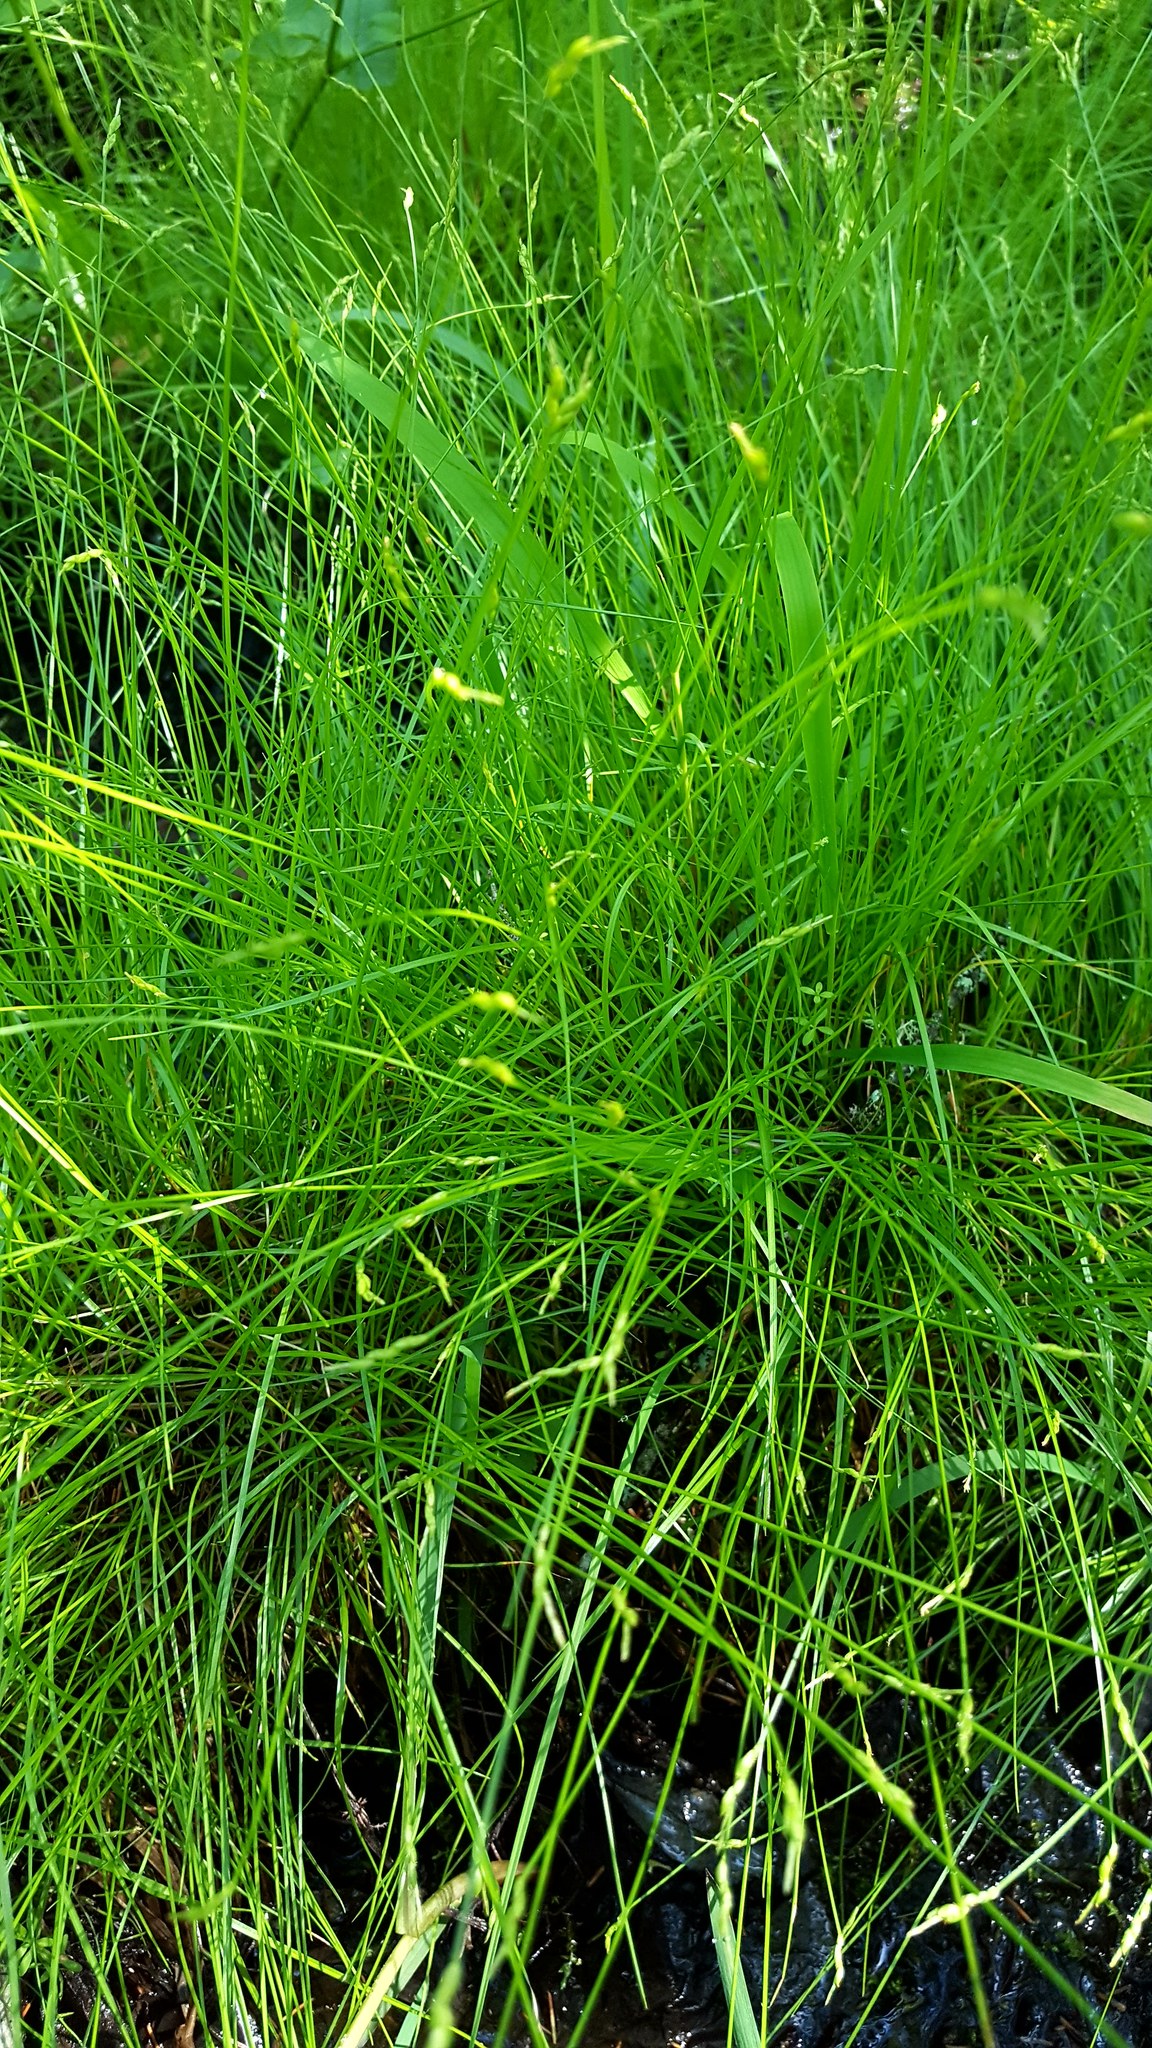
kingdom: Plantae
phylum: Tracheophyta
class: Liliopsida
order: Poales
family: Cyperaceae
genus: Carex
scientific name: Carex leptalea
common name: Bristly-stalked sedge
